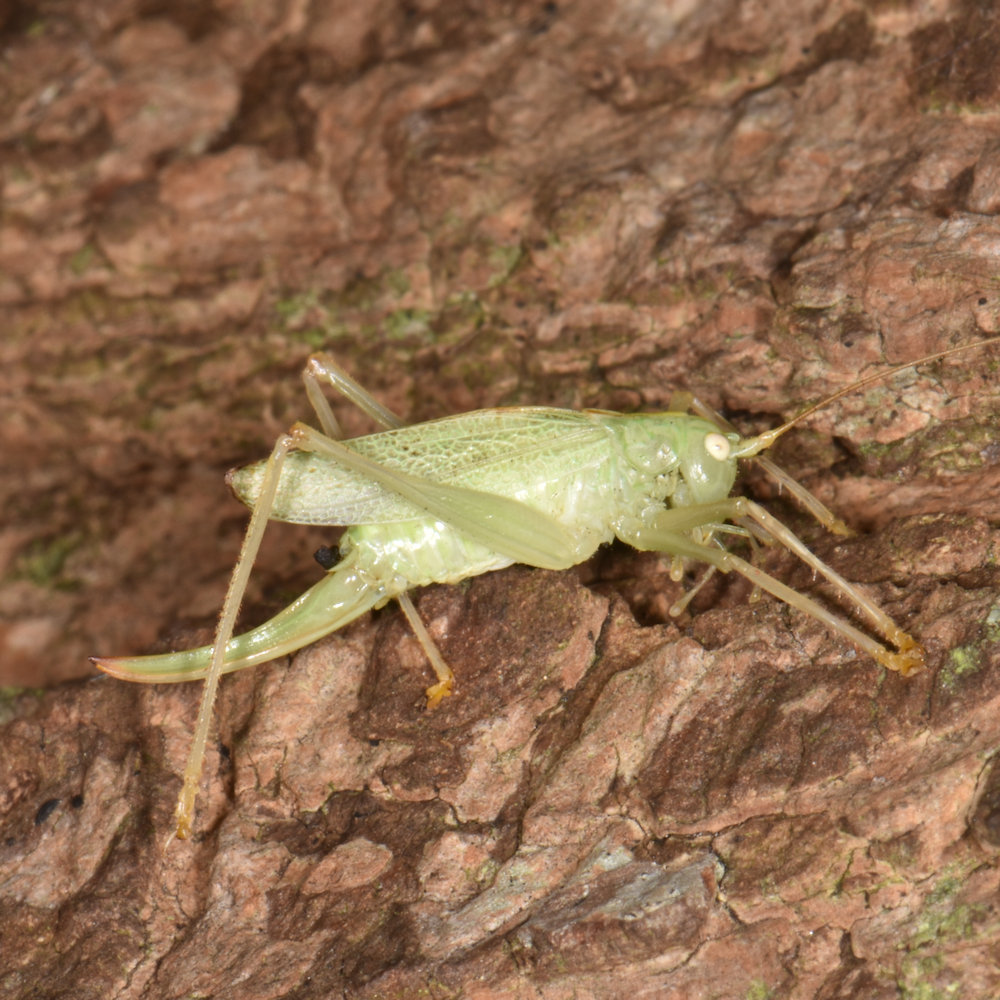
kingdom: Animalia
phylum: Arthropoda
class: Insecta
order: Orthoptera
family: Tettigoniidae
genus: Meconema
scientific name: Meconema thalassinum
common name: Oak bush-cricket
